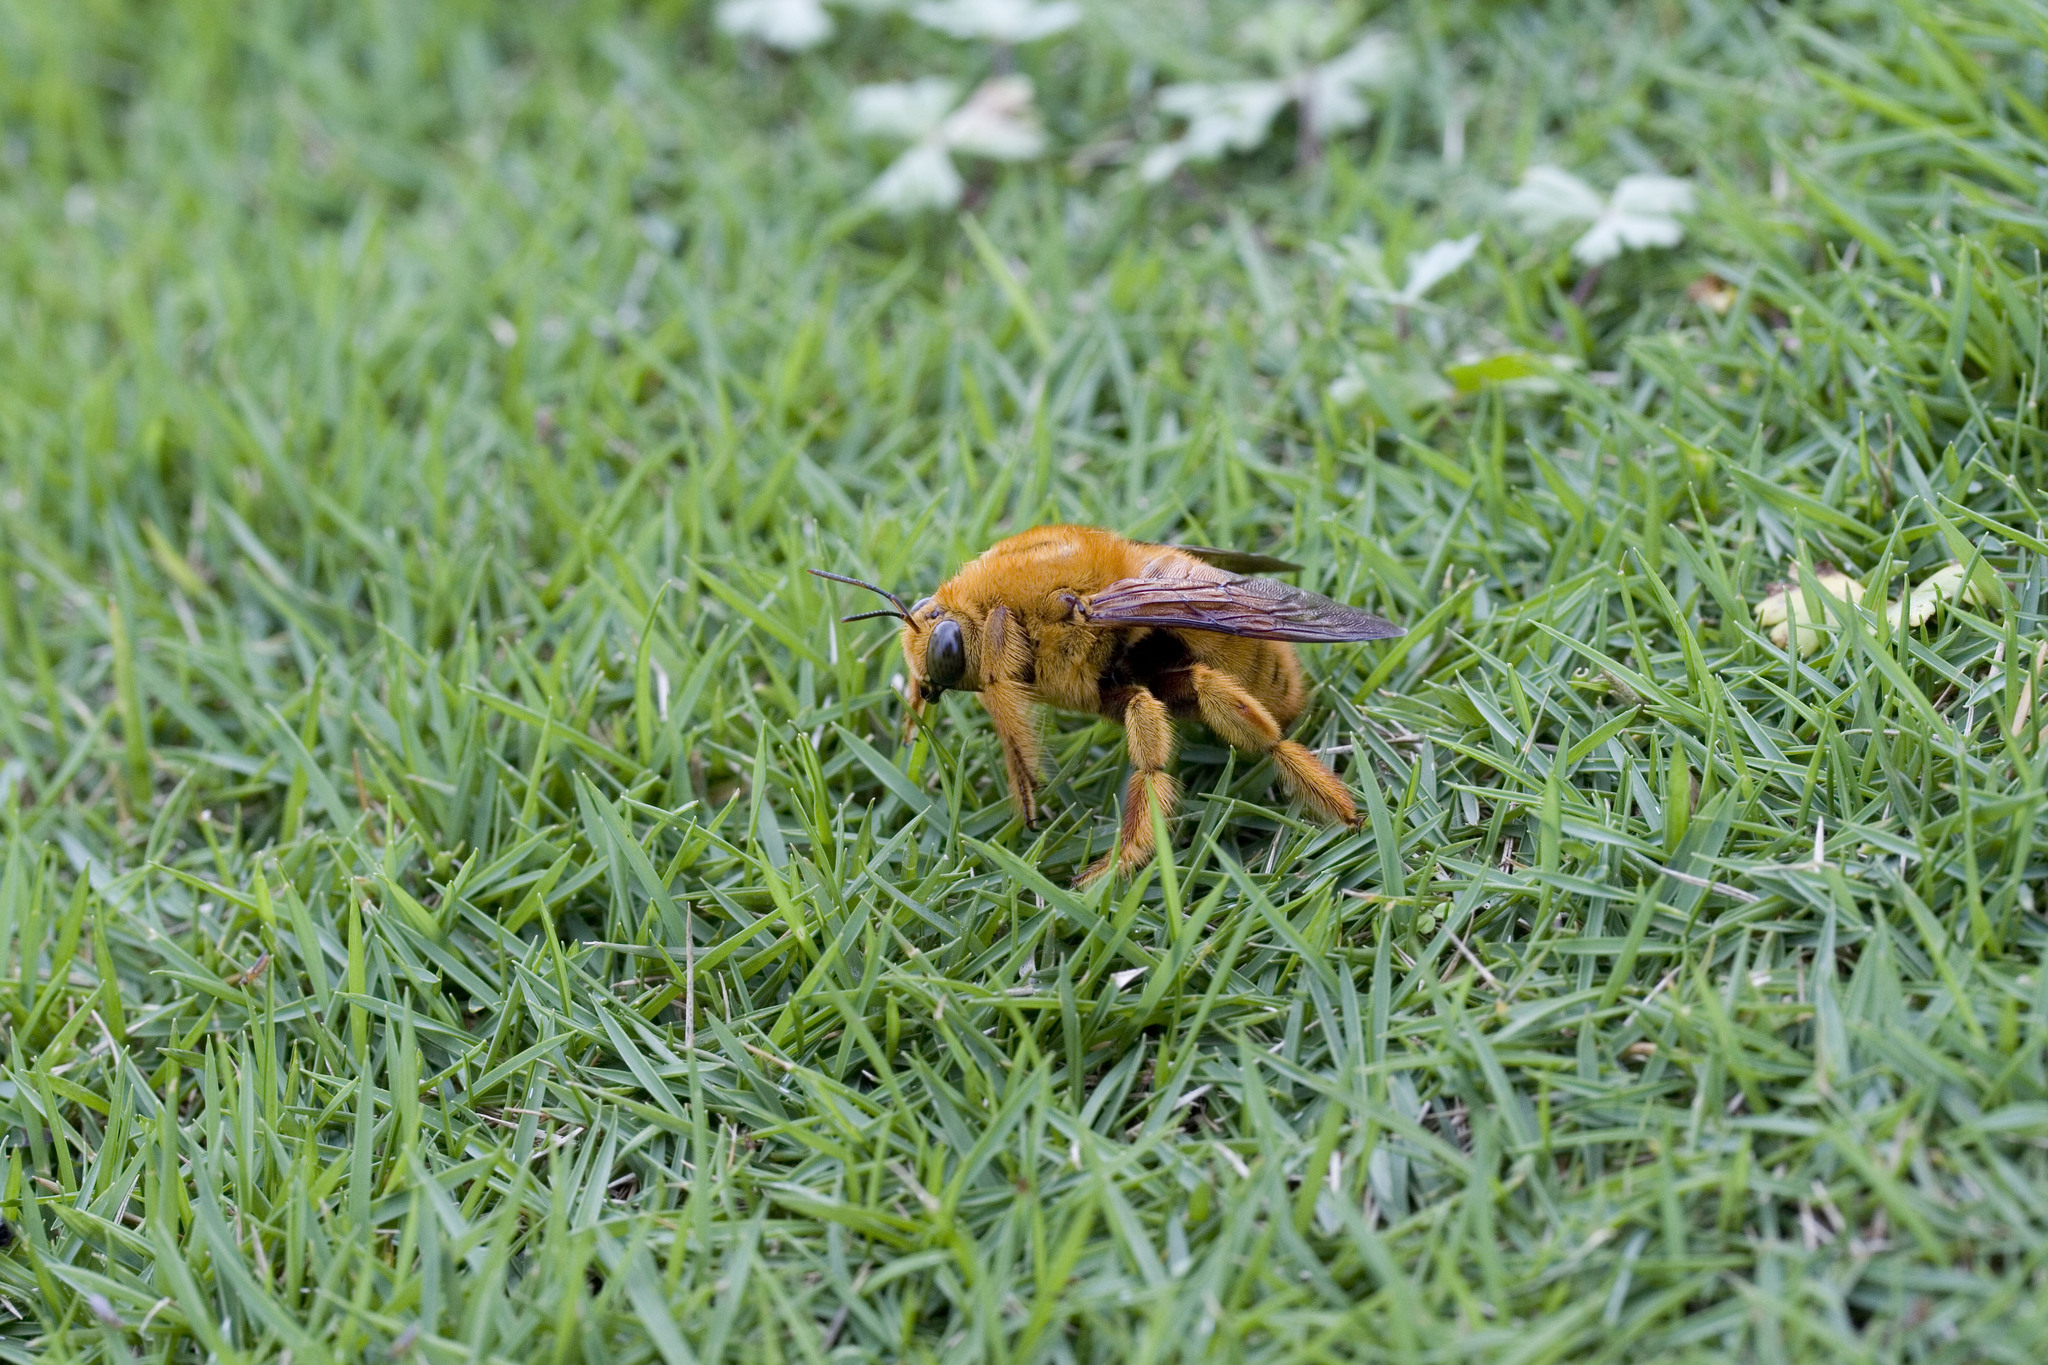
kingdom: Animalia
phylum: Arthropoda
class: Insecta
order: Hymenoptera
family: Apidae
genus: Xylocopa
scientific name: Xylocopa ruficeps
